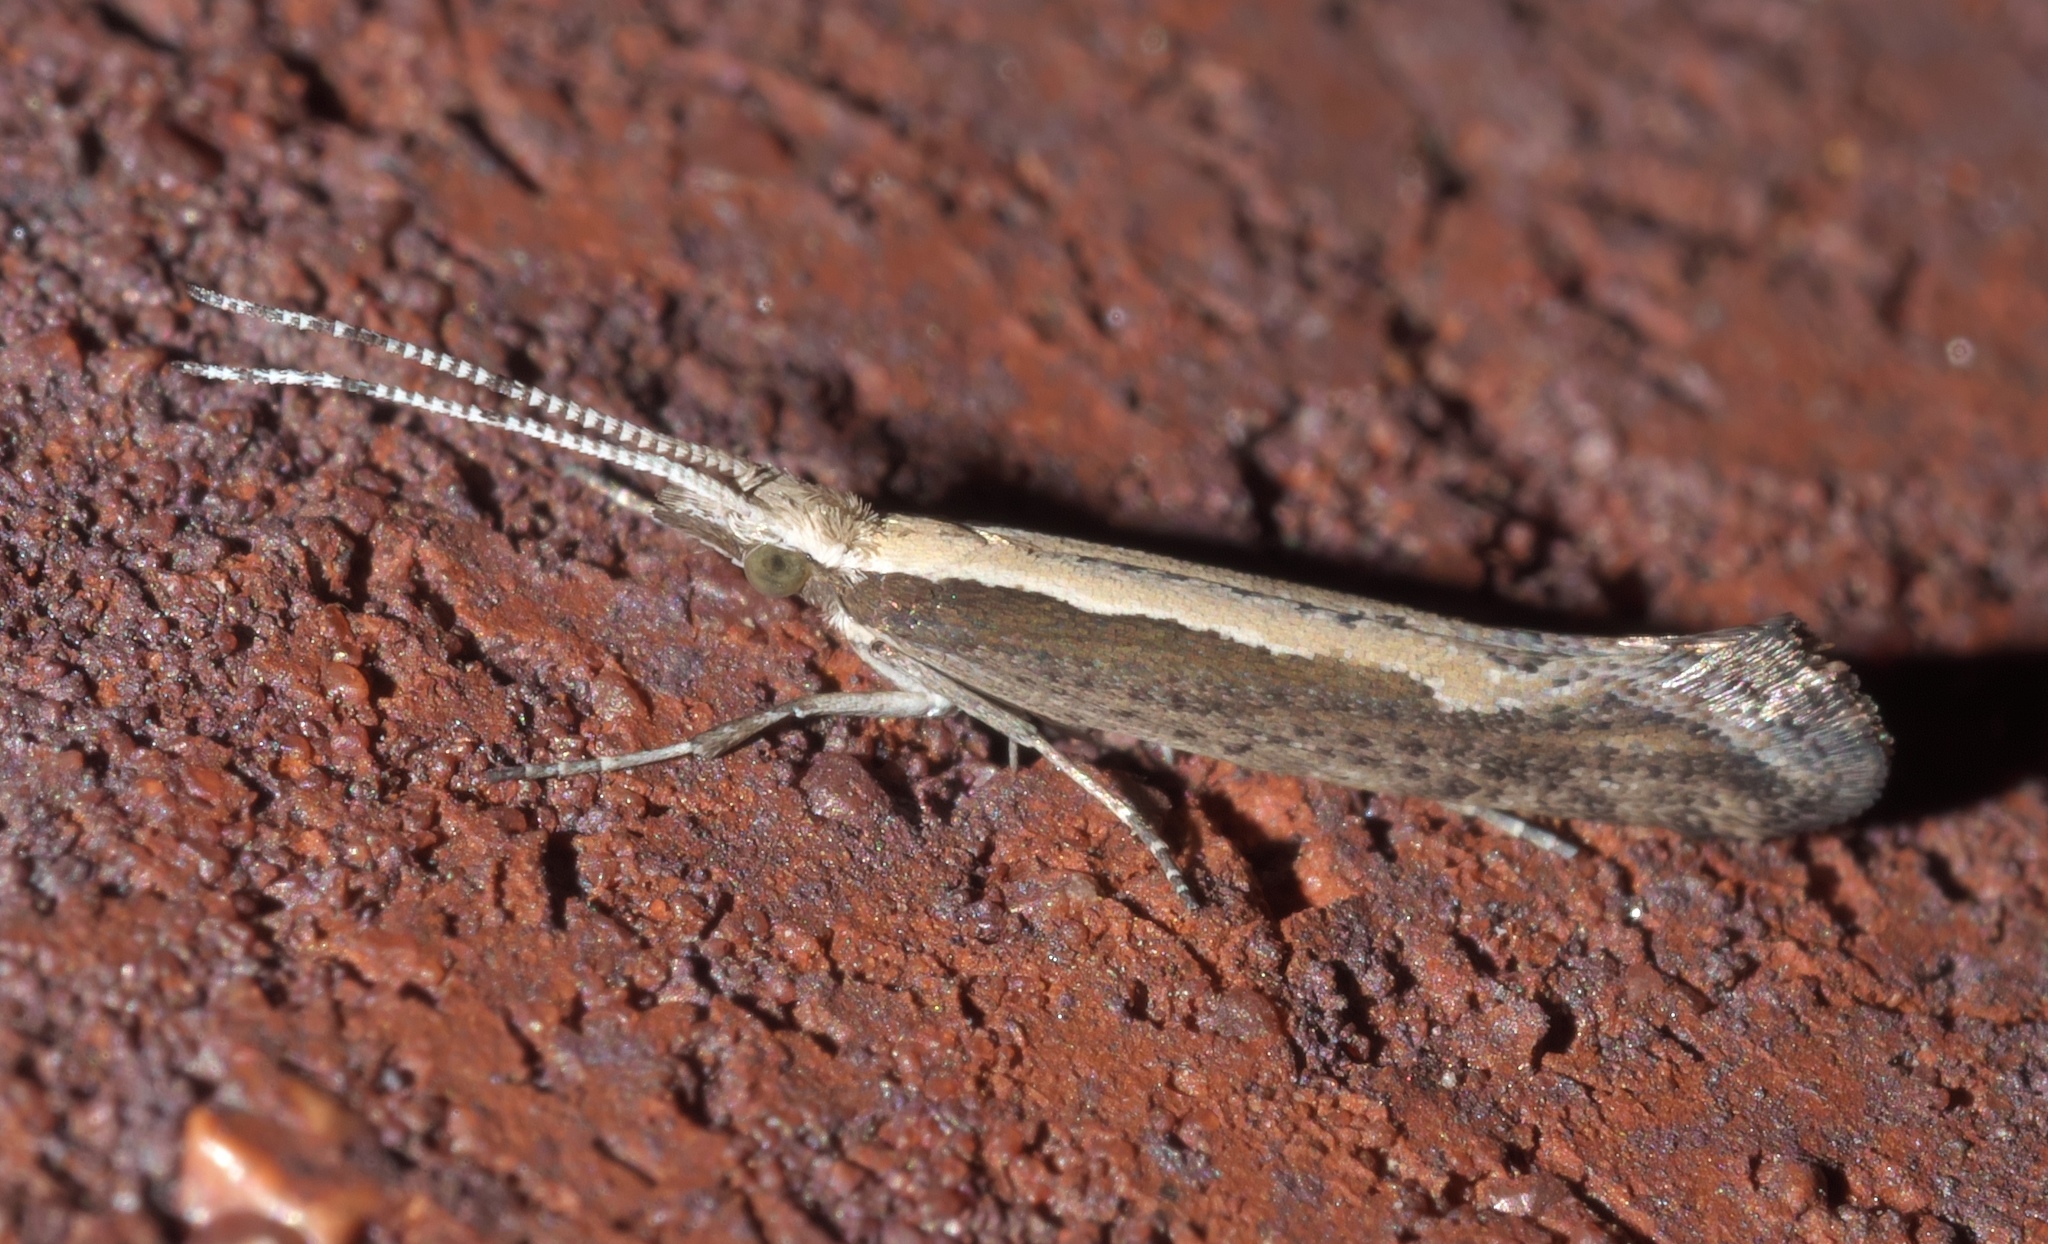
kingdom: Animalia
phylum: Arthropoda
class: Insecta
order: Lepidoptera
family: Plutellidae
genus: Plutella
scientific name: Plutella xylostella
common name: Diamond-back moth
